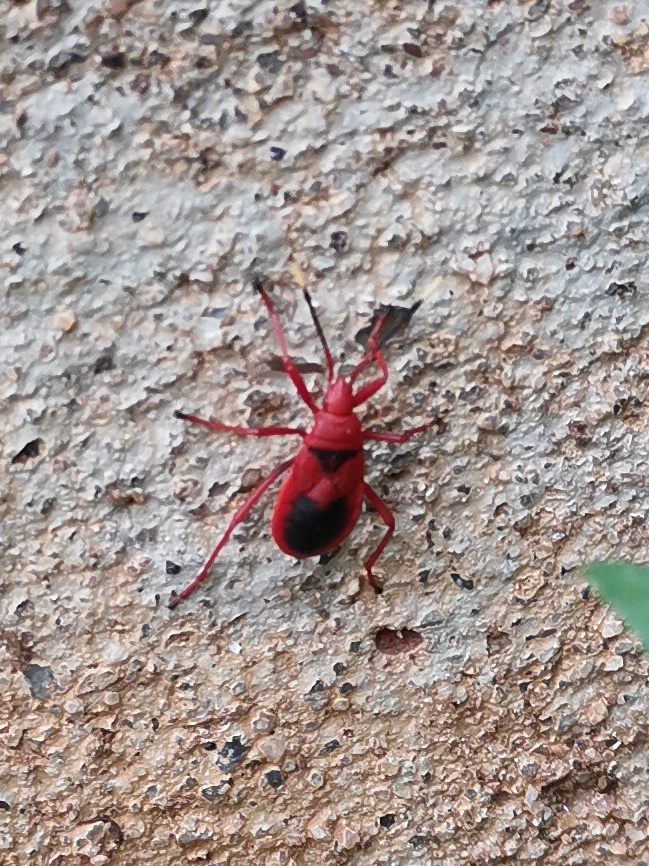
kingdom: Animalia
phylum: Arthropoda
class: Insecta
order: Hemiptera
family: Pyrrhocoridae
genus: Probergrothius
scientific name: Probergrothius
